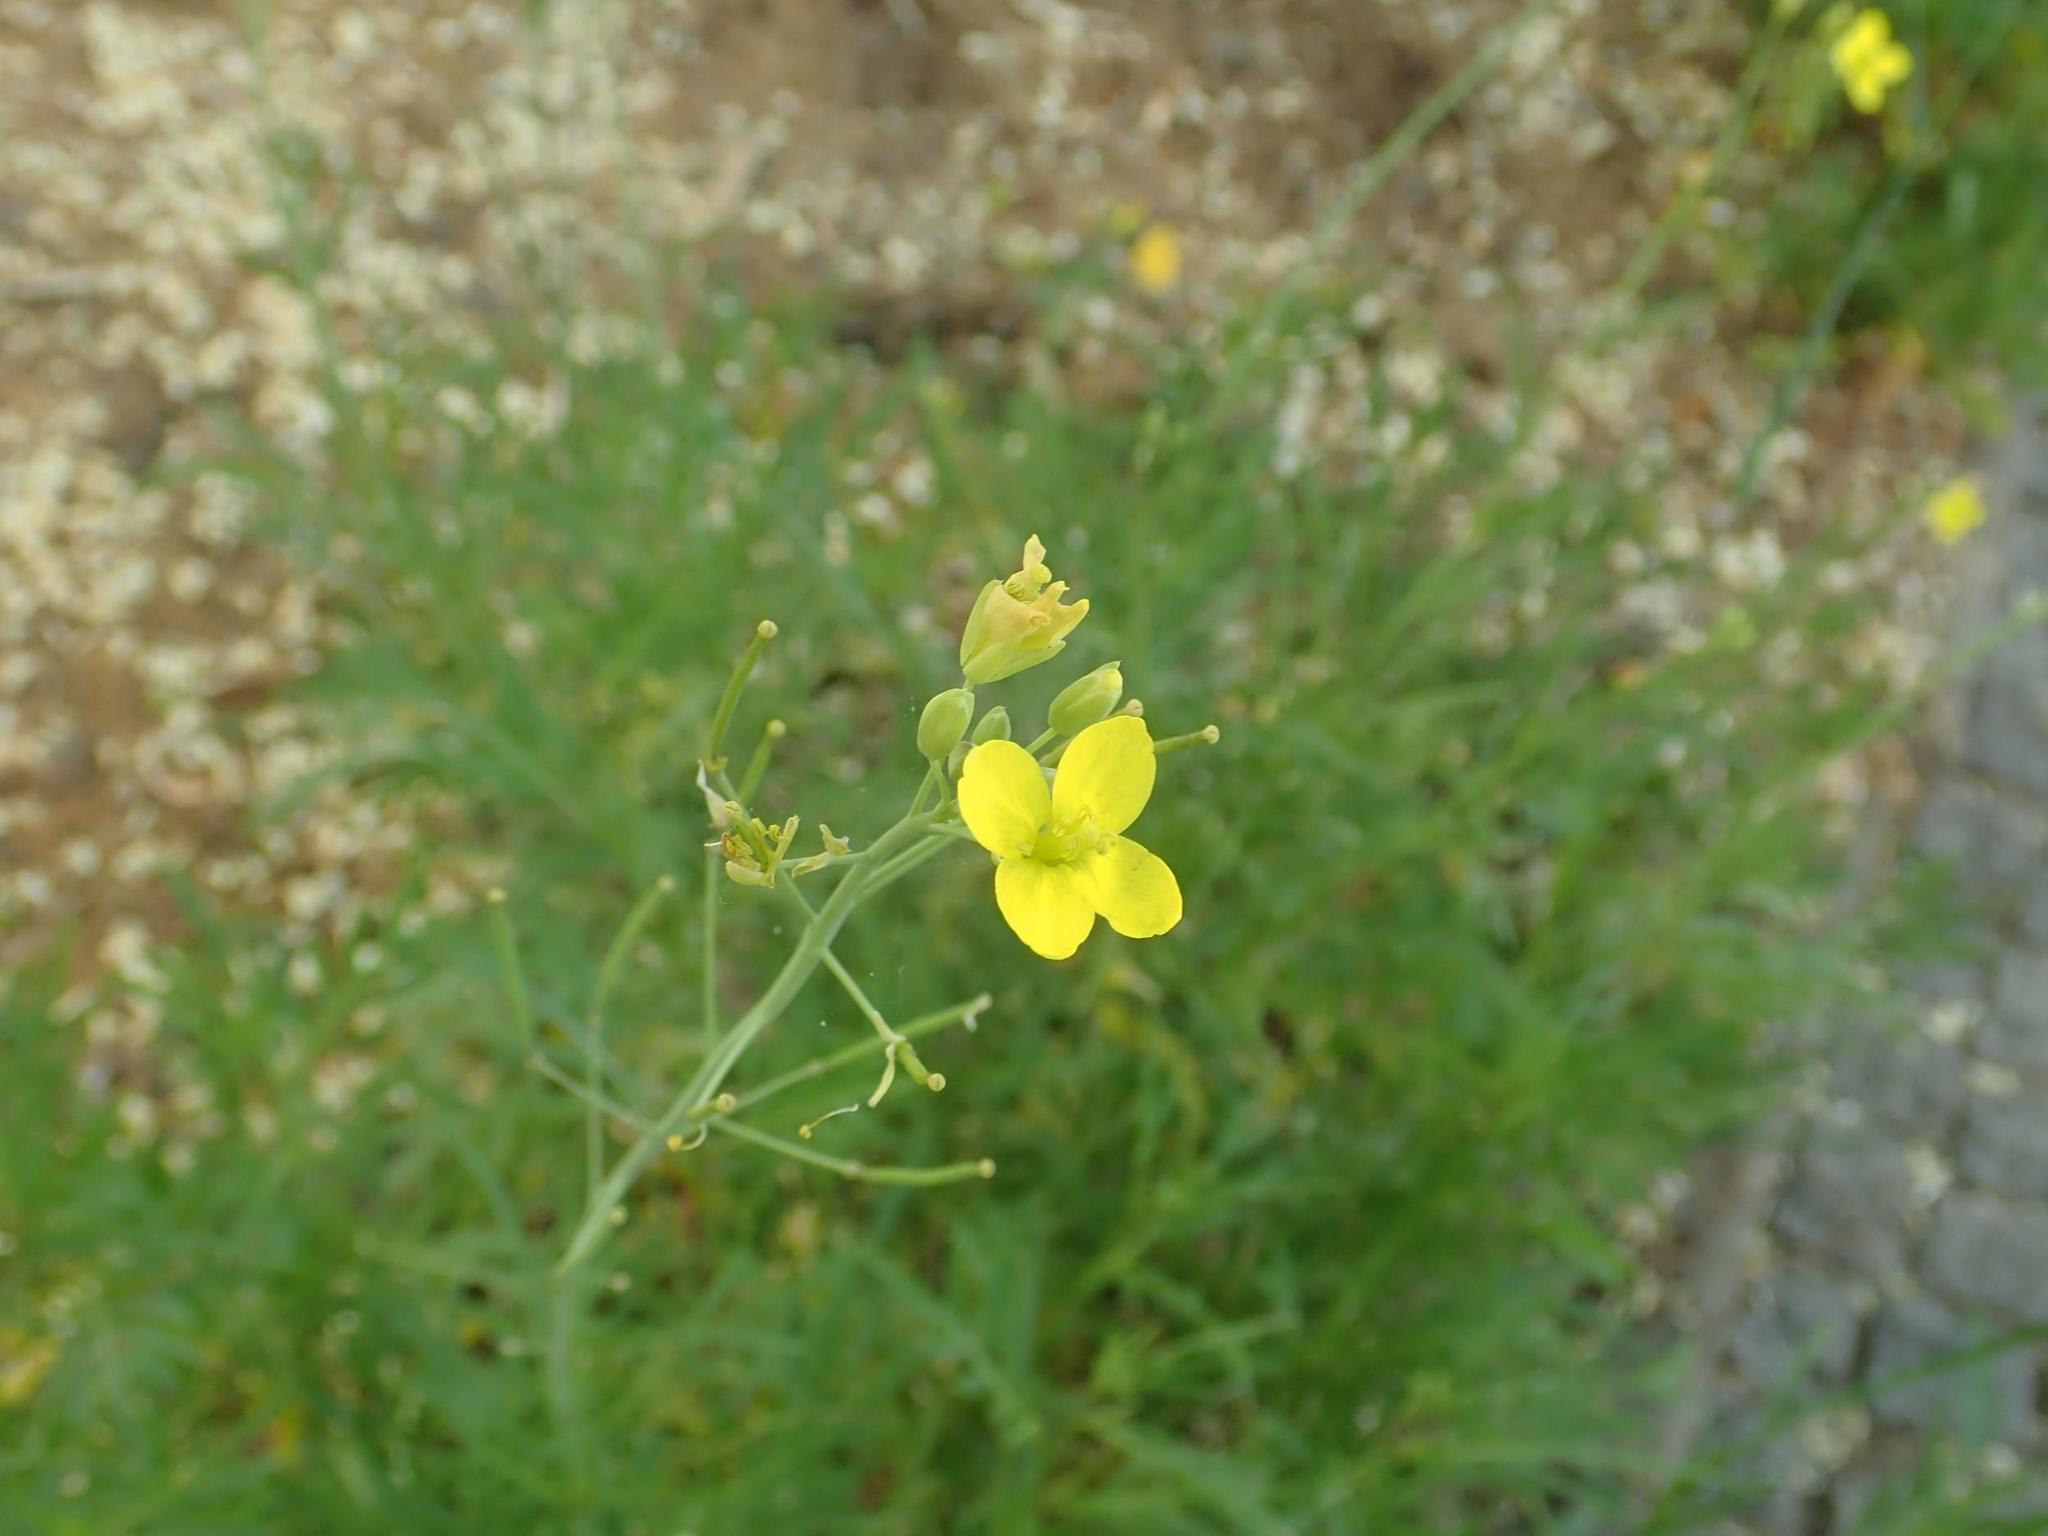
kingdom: Plantae
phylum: Tracheophyta
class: Magnoliopsida
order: Brassicales
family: Brassicaceae
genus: Diplotaxis
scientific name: Diplotaxis tenuifolia
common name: Perennial wall-rocket
